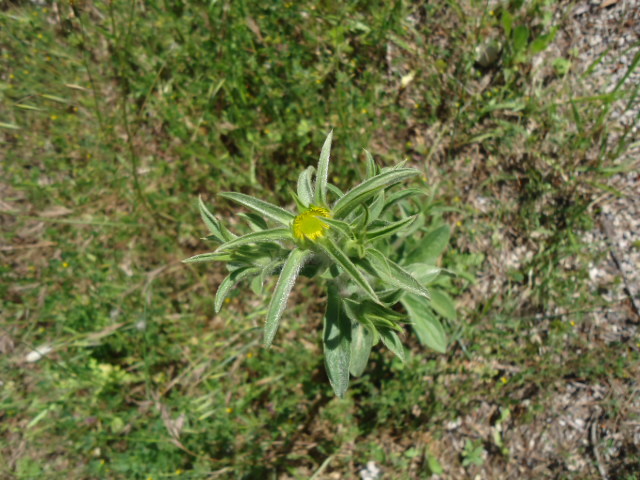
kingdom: Plantae
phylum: Tracheophyta
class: Magnoliopsida
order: Asterales
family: Asteraceae
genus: Pallenis
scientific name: Pallenis spinosa
